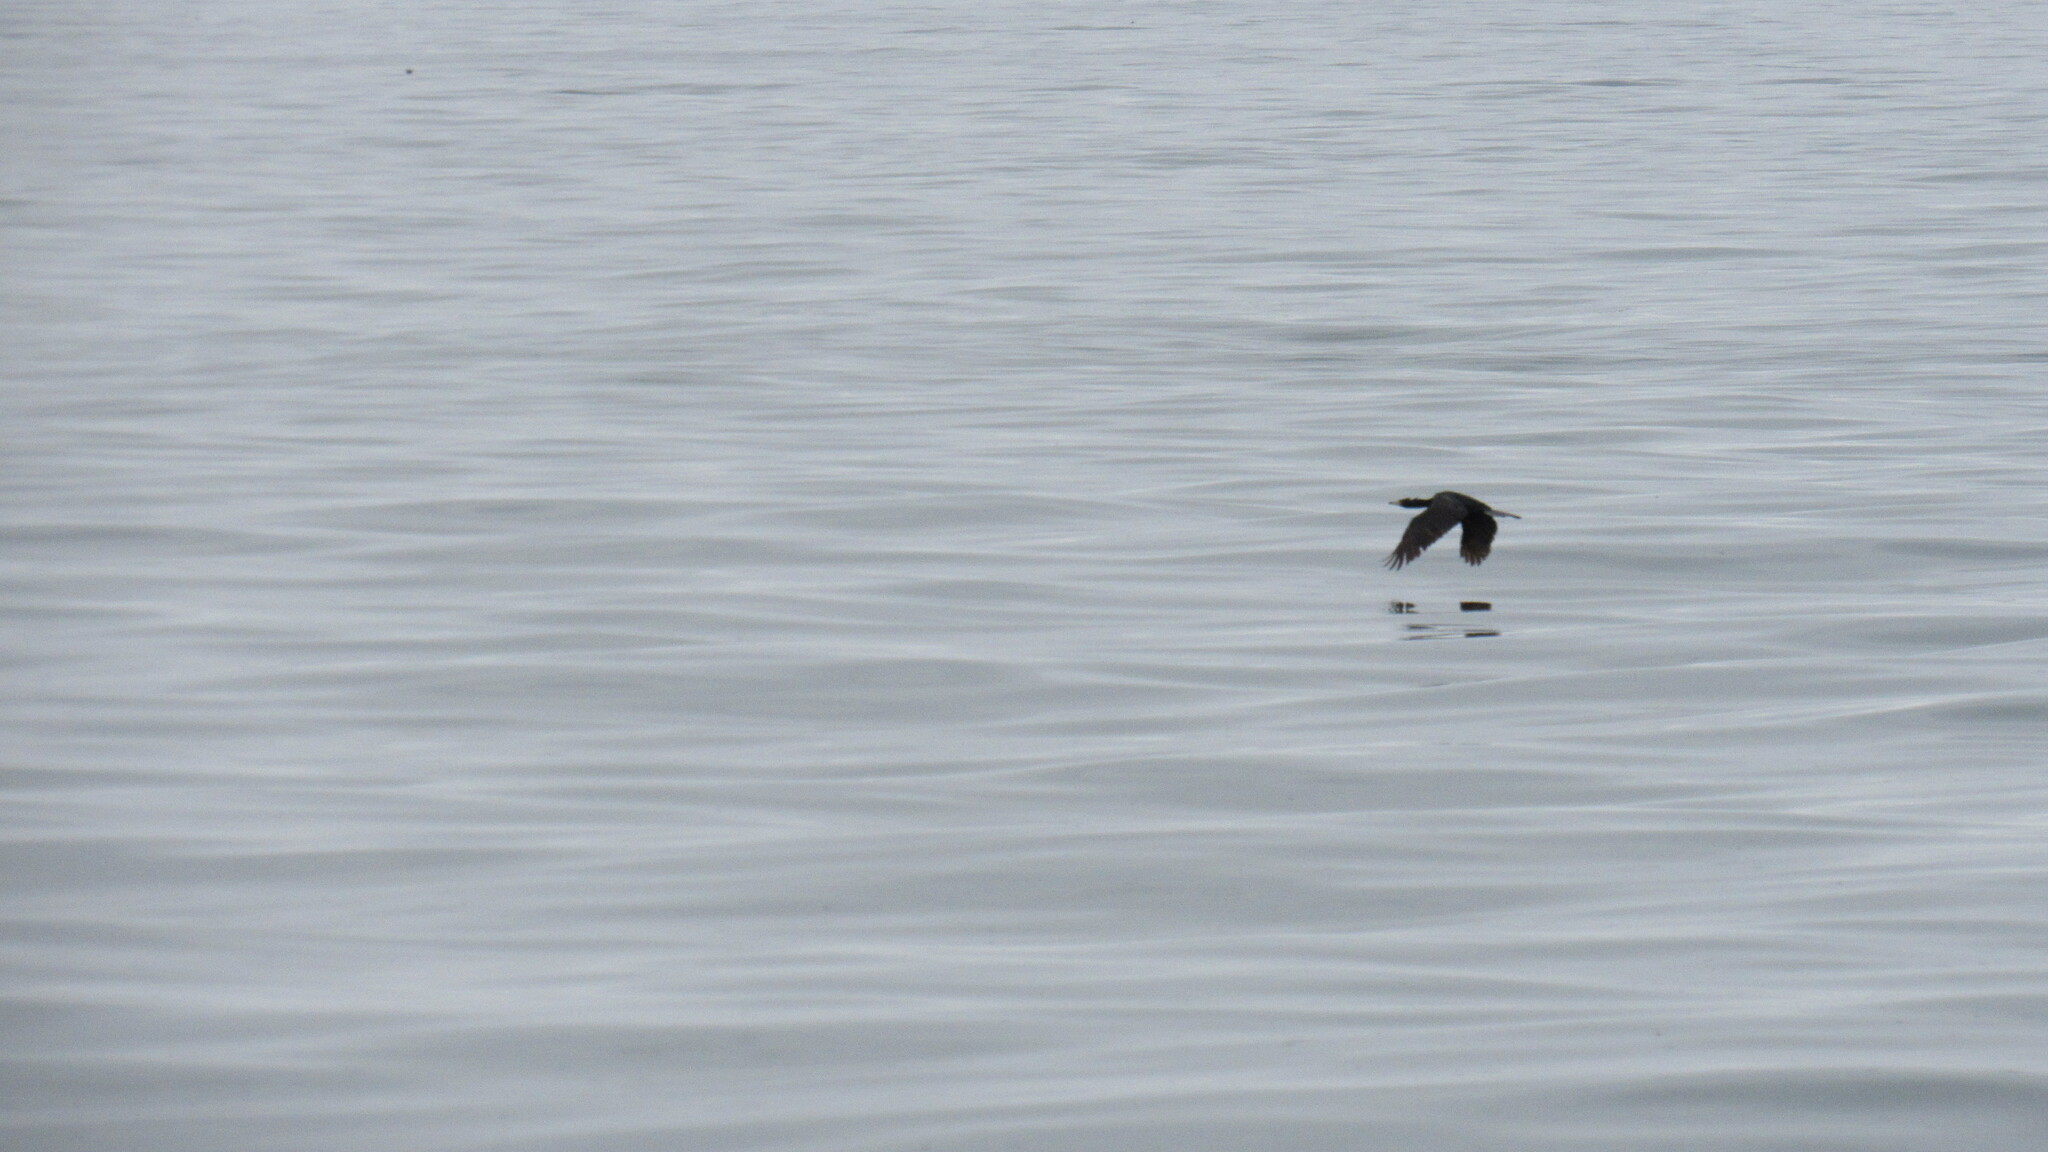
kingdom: Animalia
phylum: Chordata
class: Aves
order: Suliformes
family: Phalacrocoracidae
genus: Phalacrocorax
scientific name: Phalacrocorax pelagicus
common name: Pelagic cormorant
